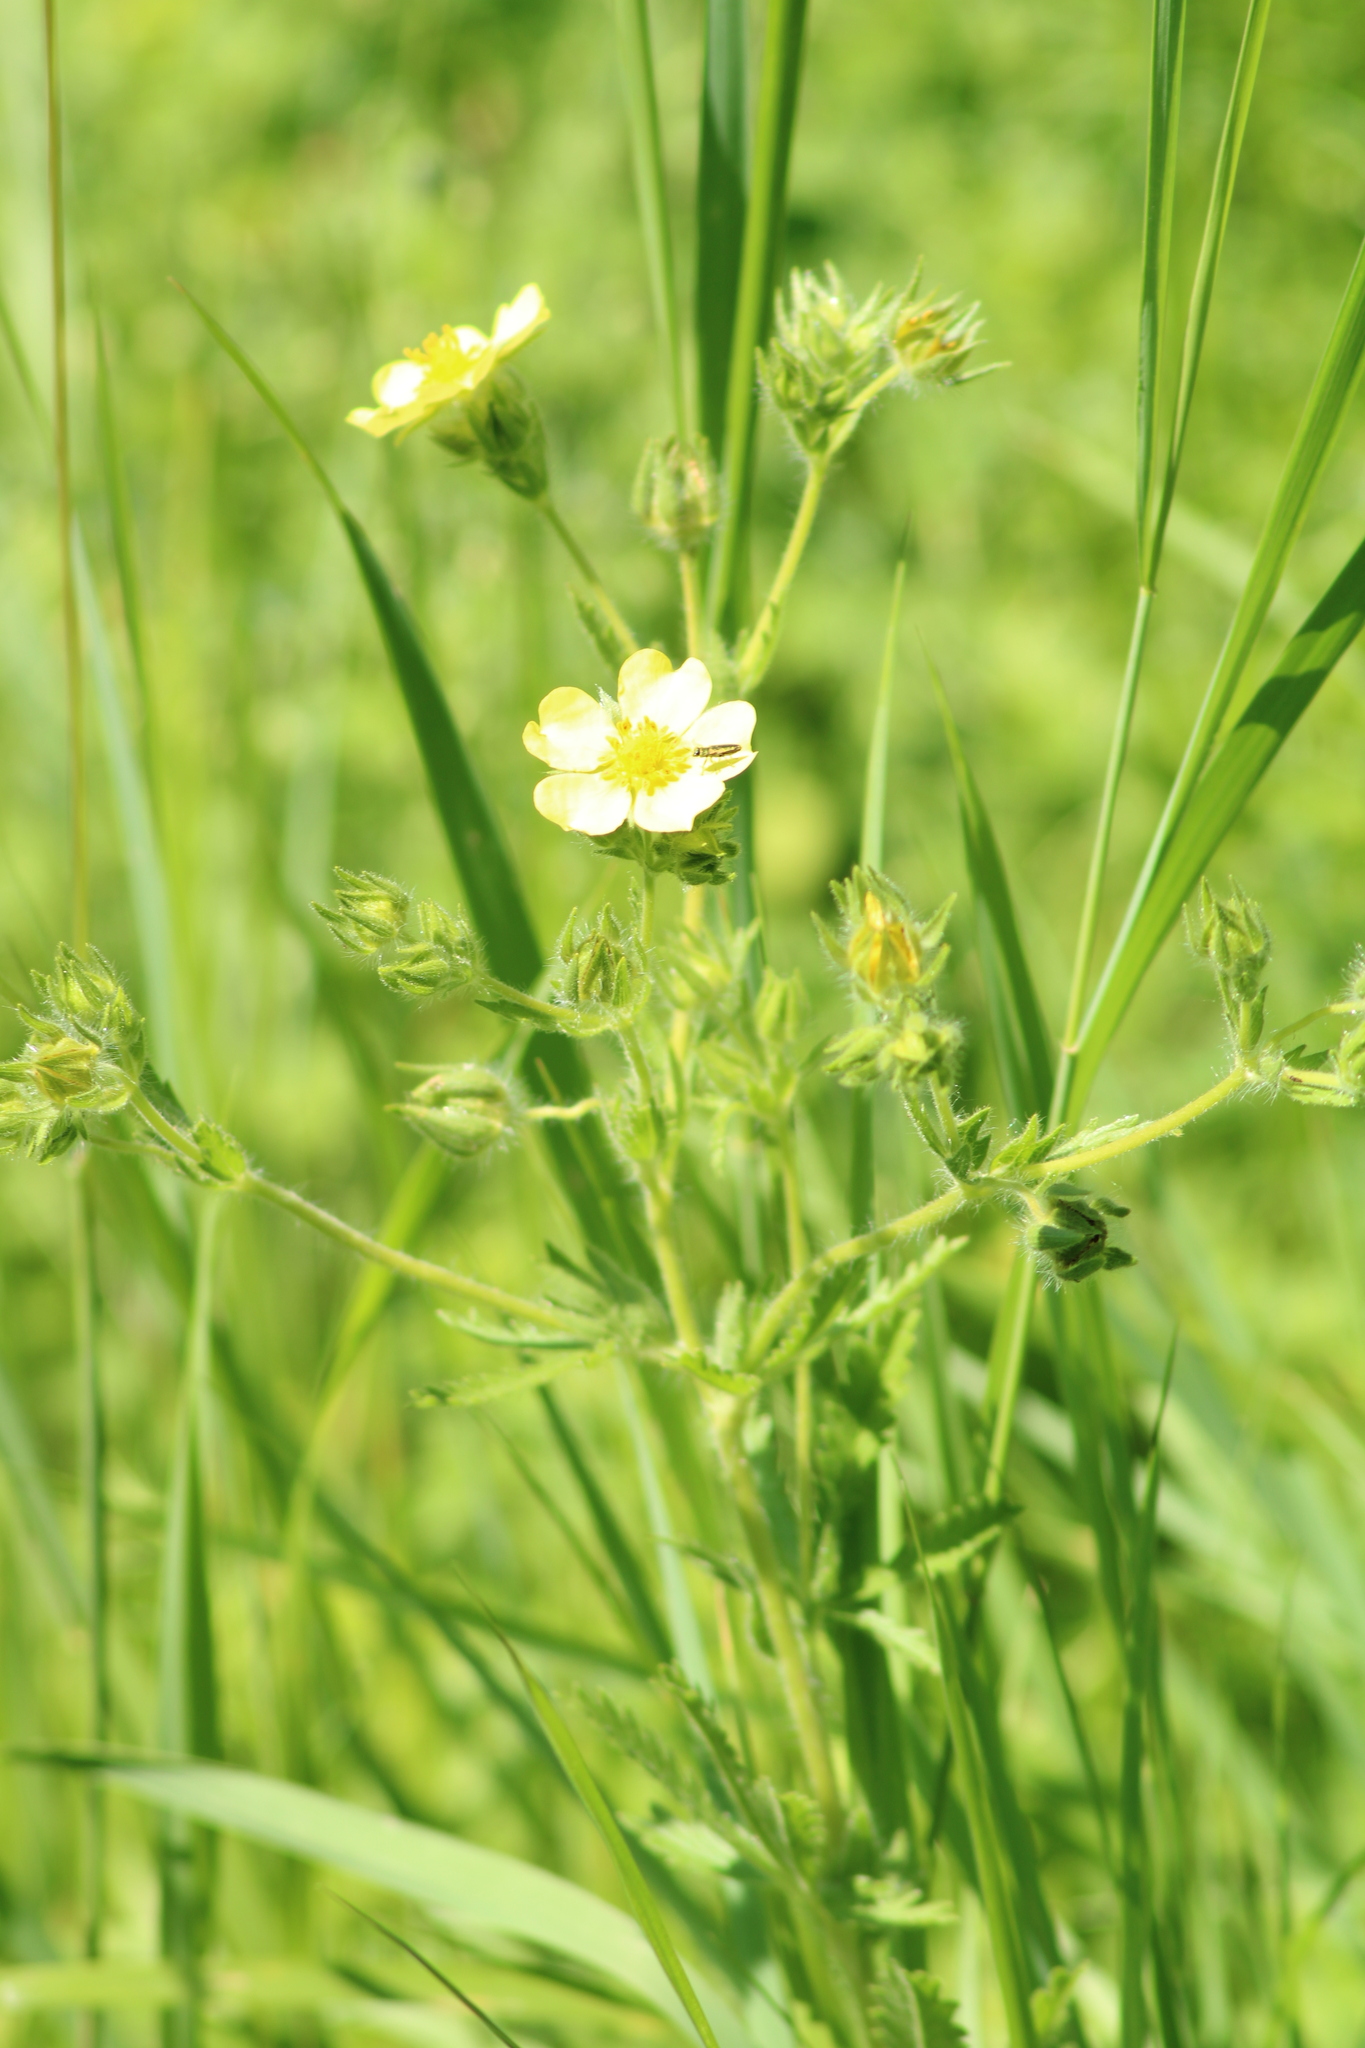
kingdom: Plantae
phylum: Tracheophyta
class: Magnoliopsida
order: Rosales
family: Rosaceae
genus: Potentilla
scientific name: Potentilla recta
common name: Sulphur cinquefoil
